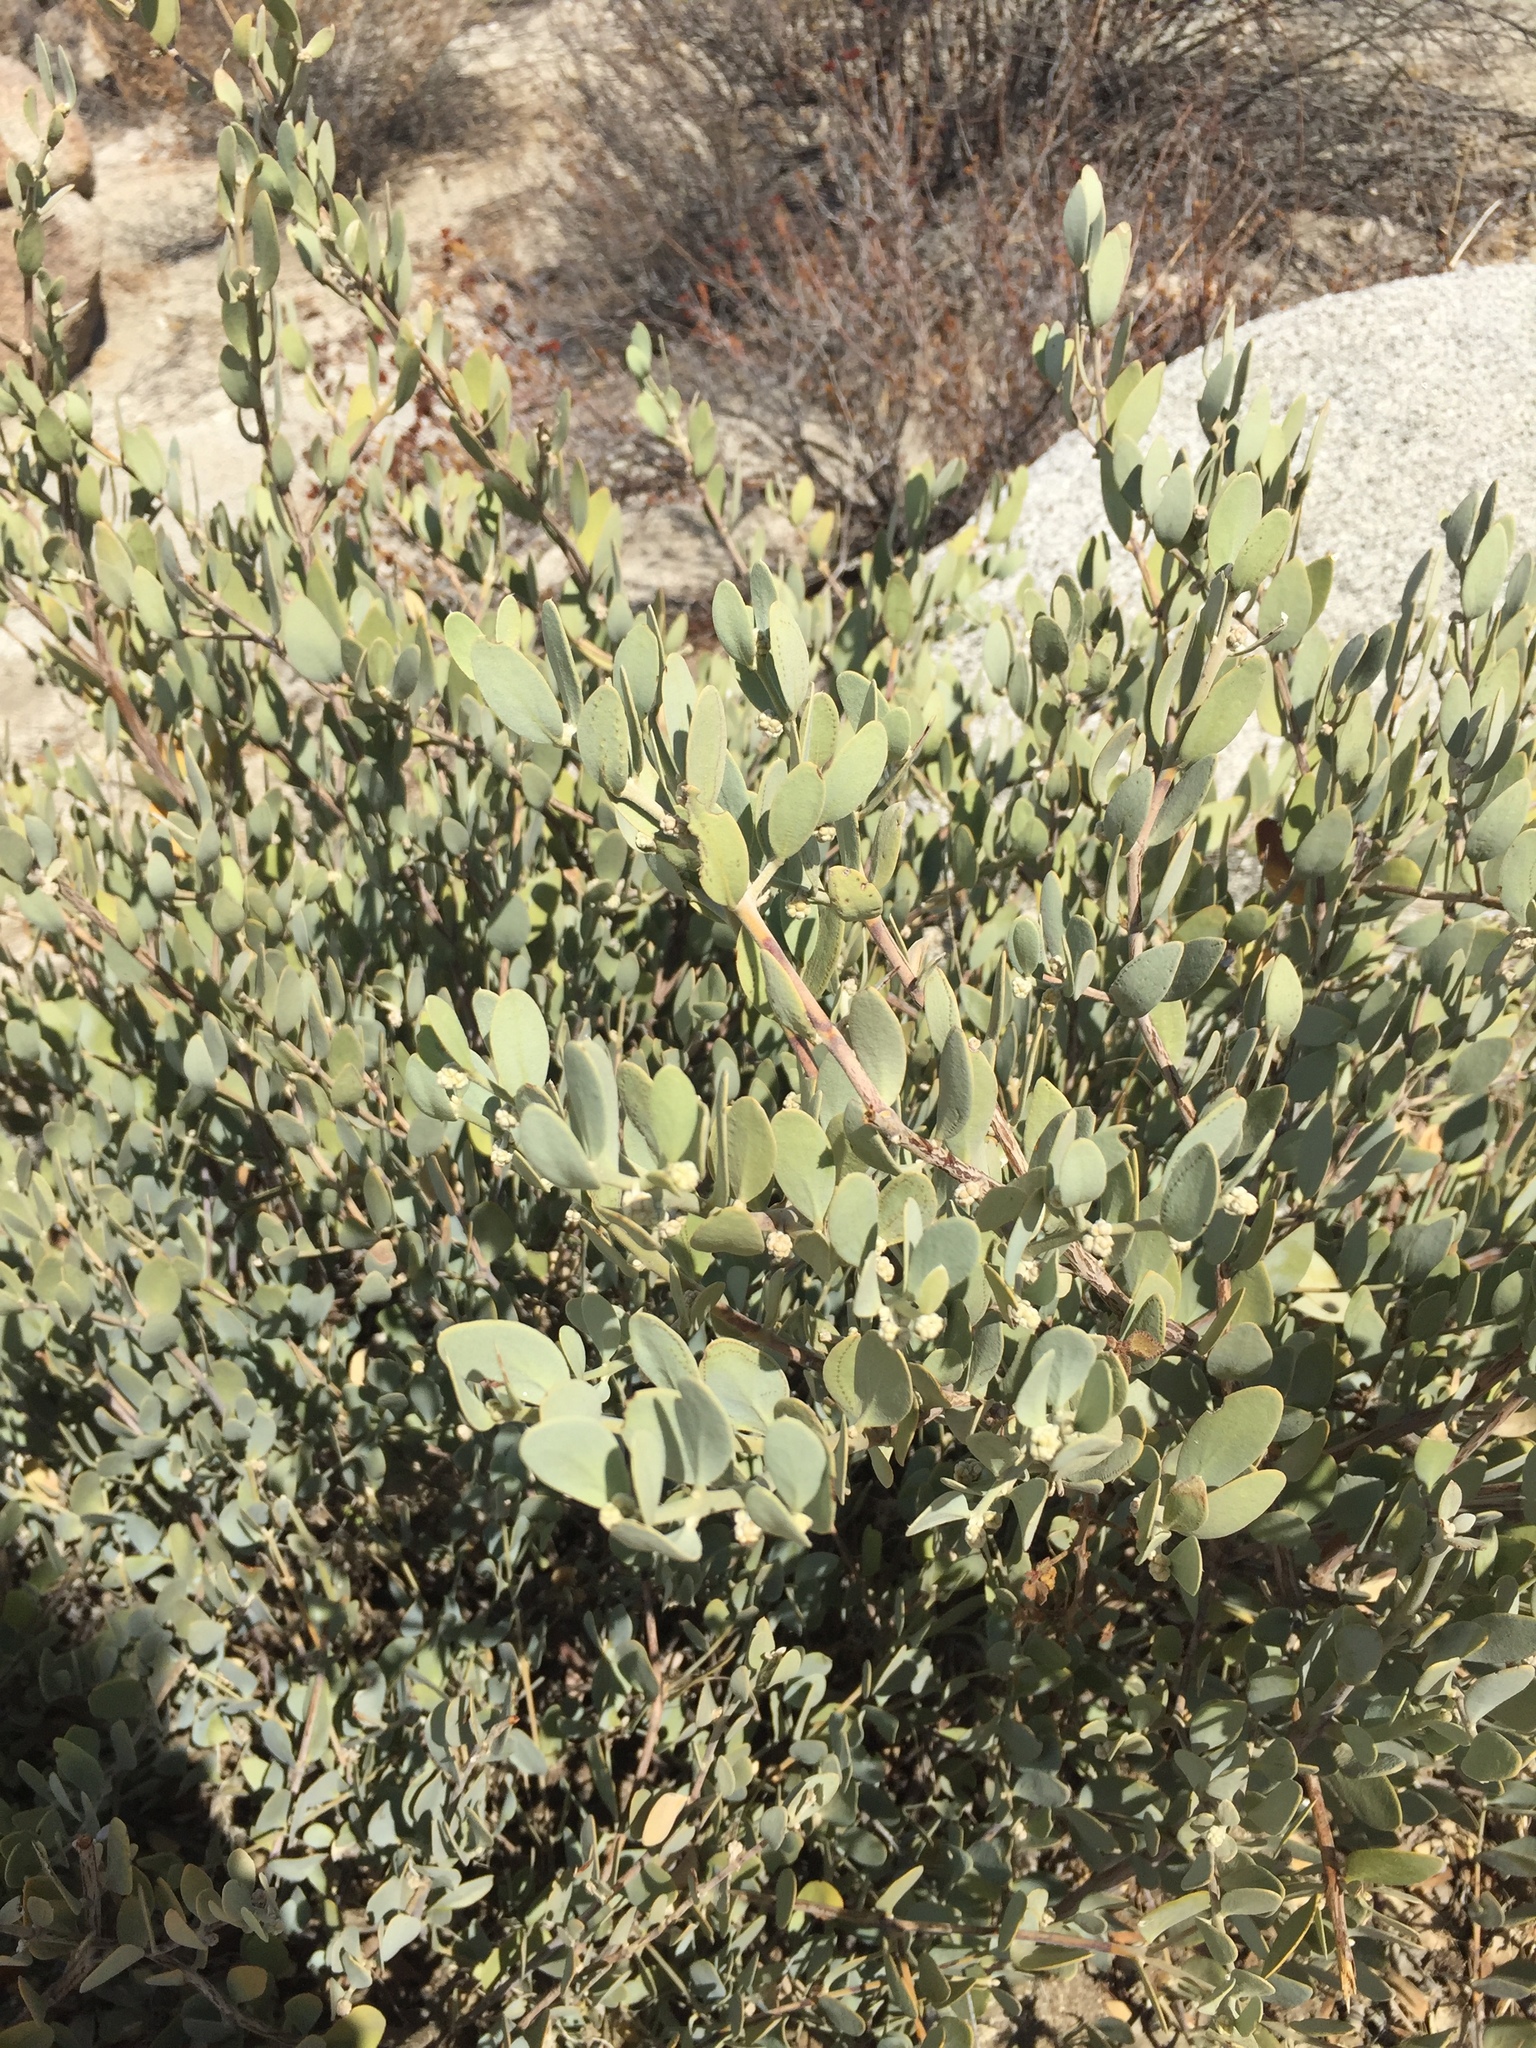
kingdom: Plantae
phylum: Tracheophyta
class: Magnoliopsida
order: Caryophyllales
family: Simmondsiaceae
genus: Simmondsia
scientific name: Simmondsia chinensis
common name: Jojoba
